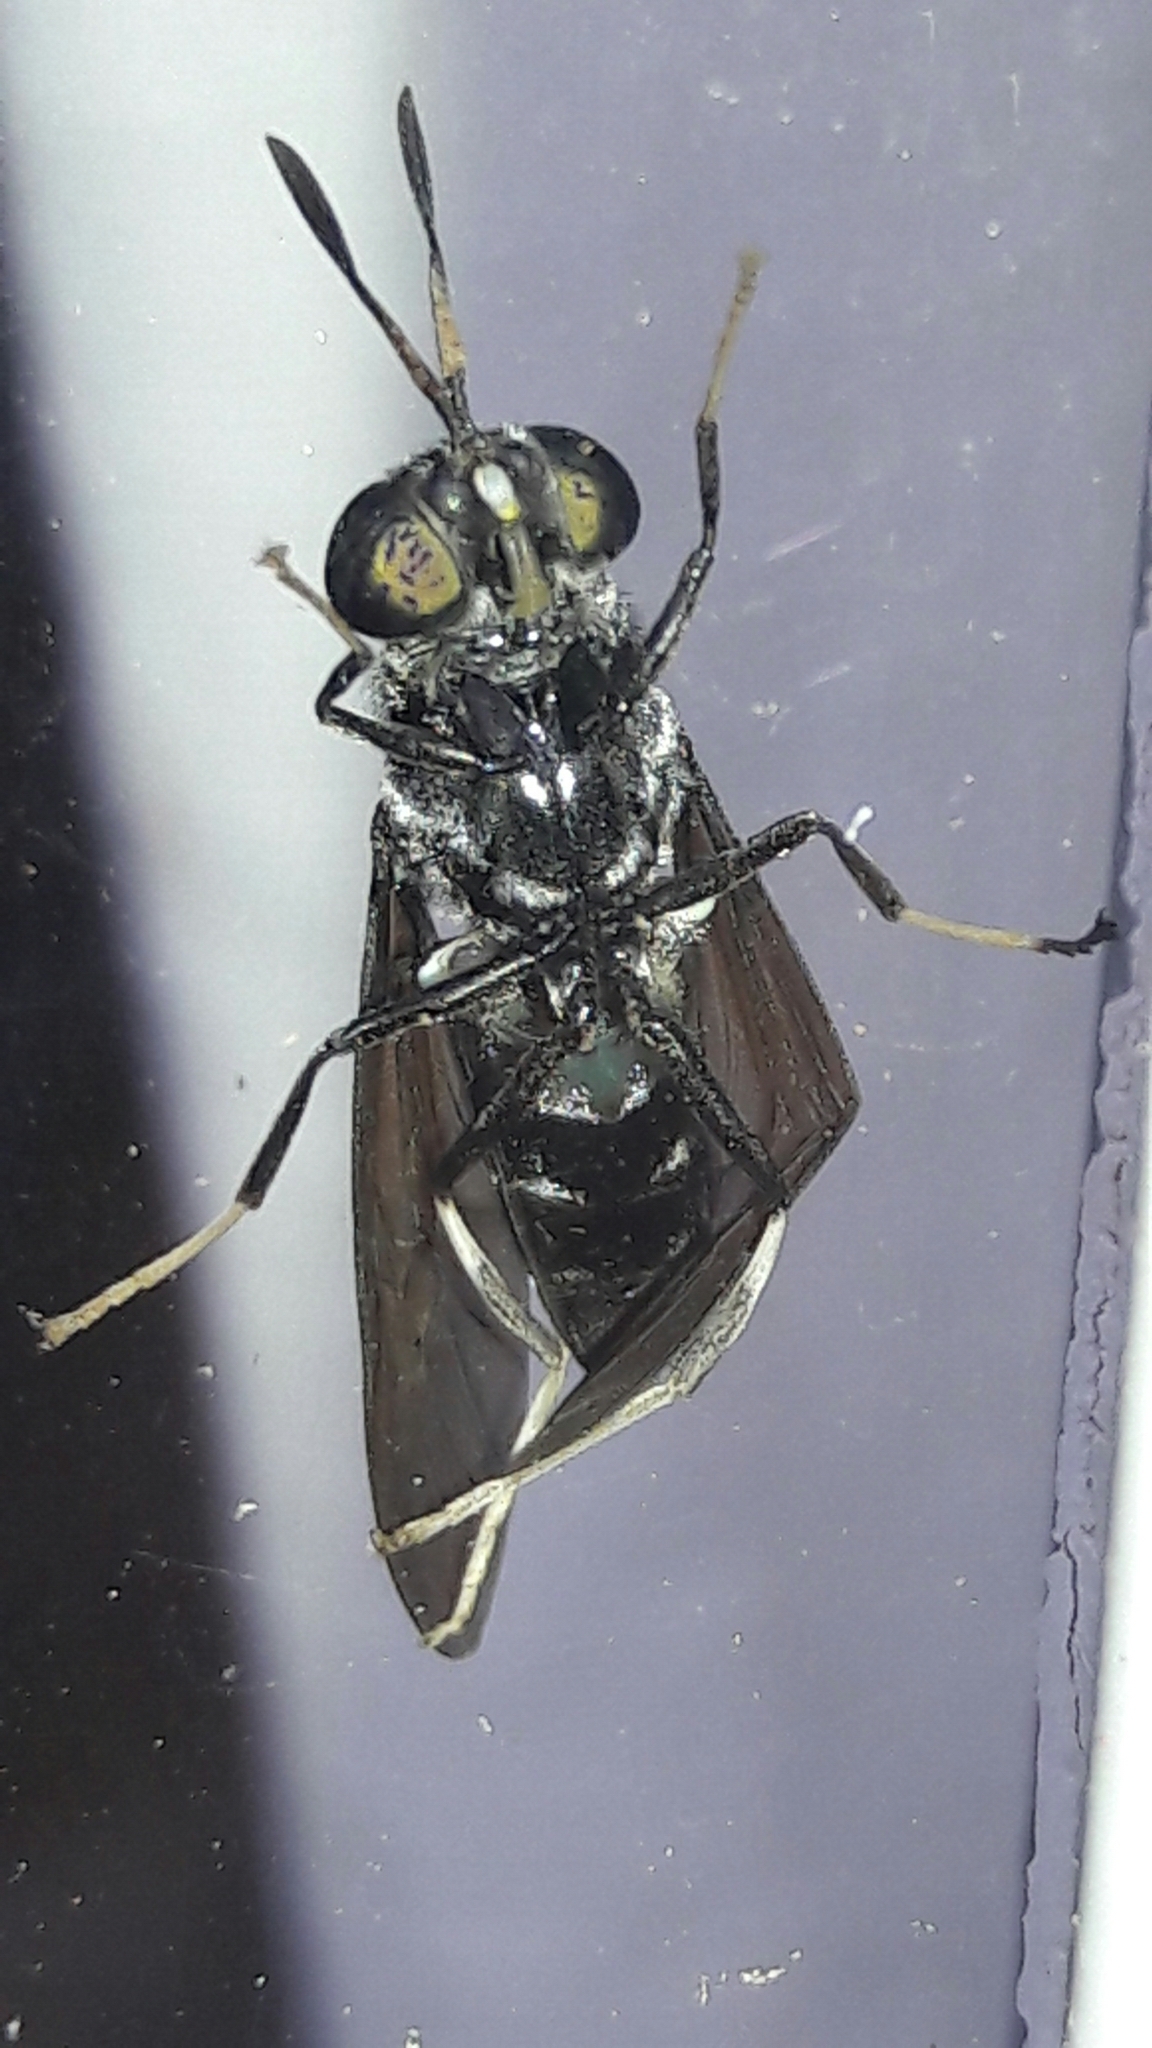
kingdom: Animalia
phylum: Arthropoda
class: Insecta
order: Diptera
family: Stratiomyidae
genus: Hermetia
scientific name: Hermetia illucens
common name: Black soldier fly
